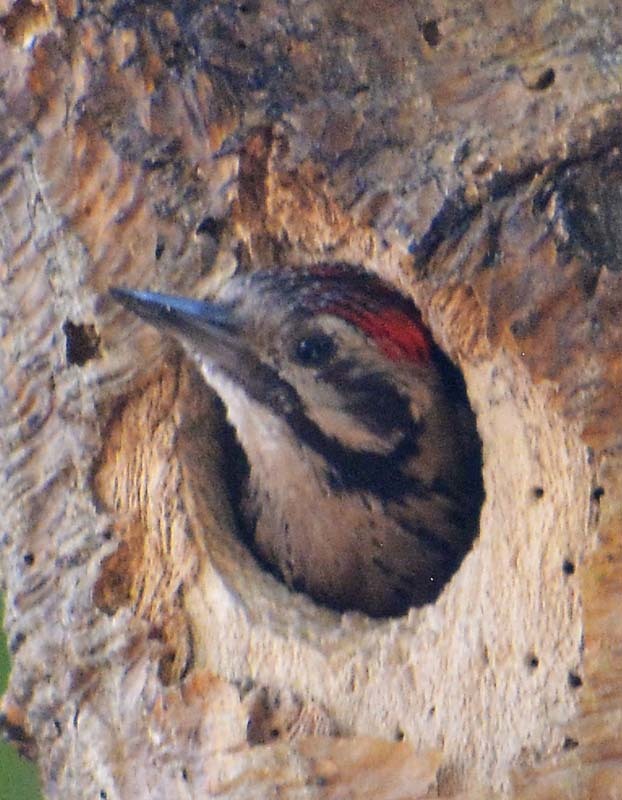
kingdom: Animalia
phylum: Chordata
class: Aves
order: Piciformes
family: Picidae
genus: Dryobates
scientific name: Dryobates scalaris
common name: Ladder-backed woodpecker
